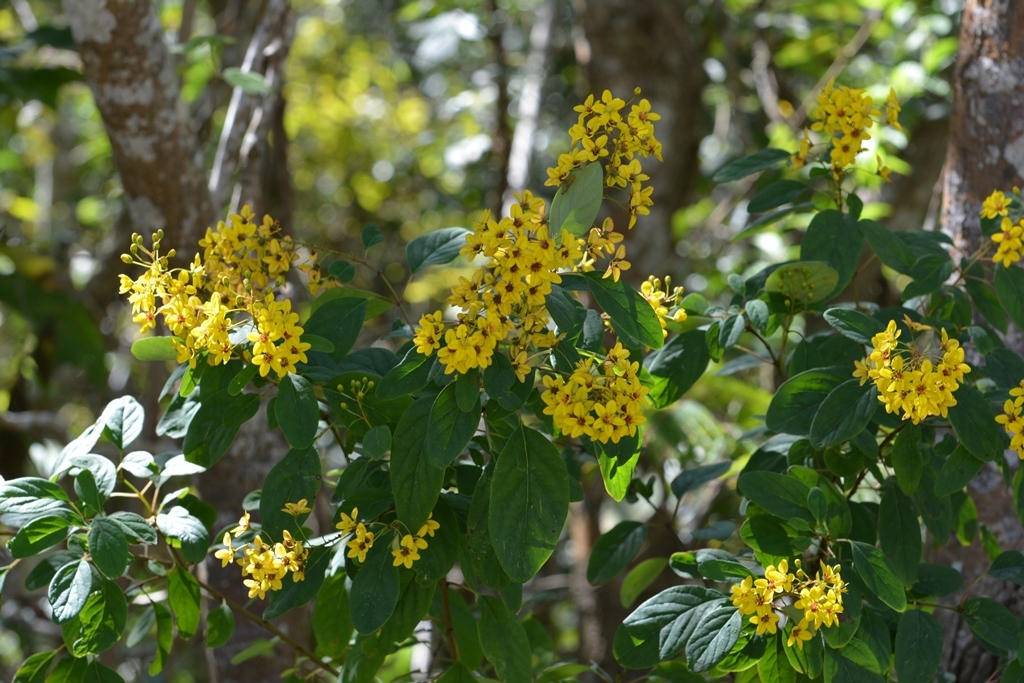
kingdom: Plantae
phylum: Tracheophyta
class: Magnoliopsida
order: Malpighiales
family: Malpighiaceae
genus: Galphimia
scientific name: Galphimia speciosa
